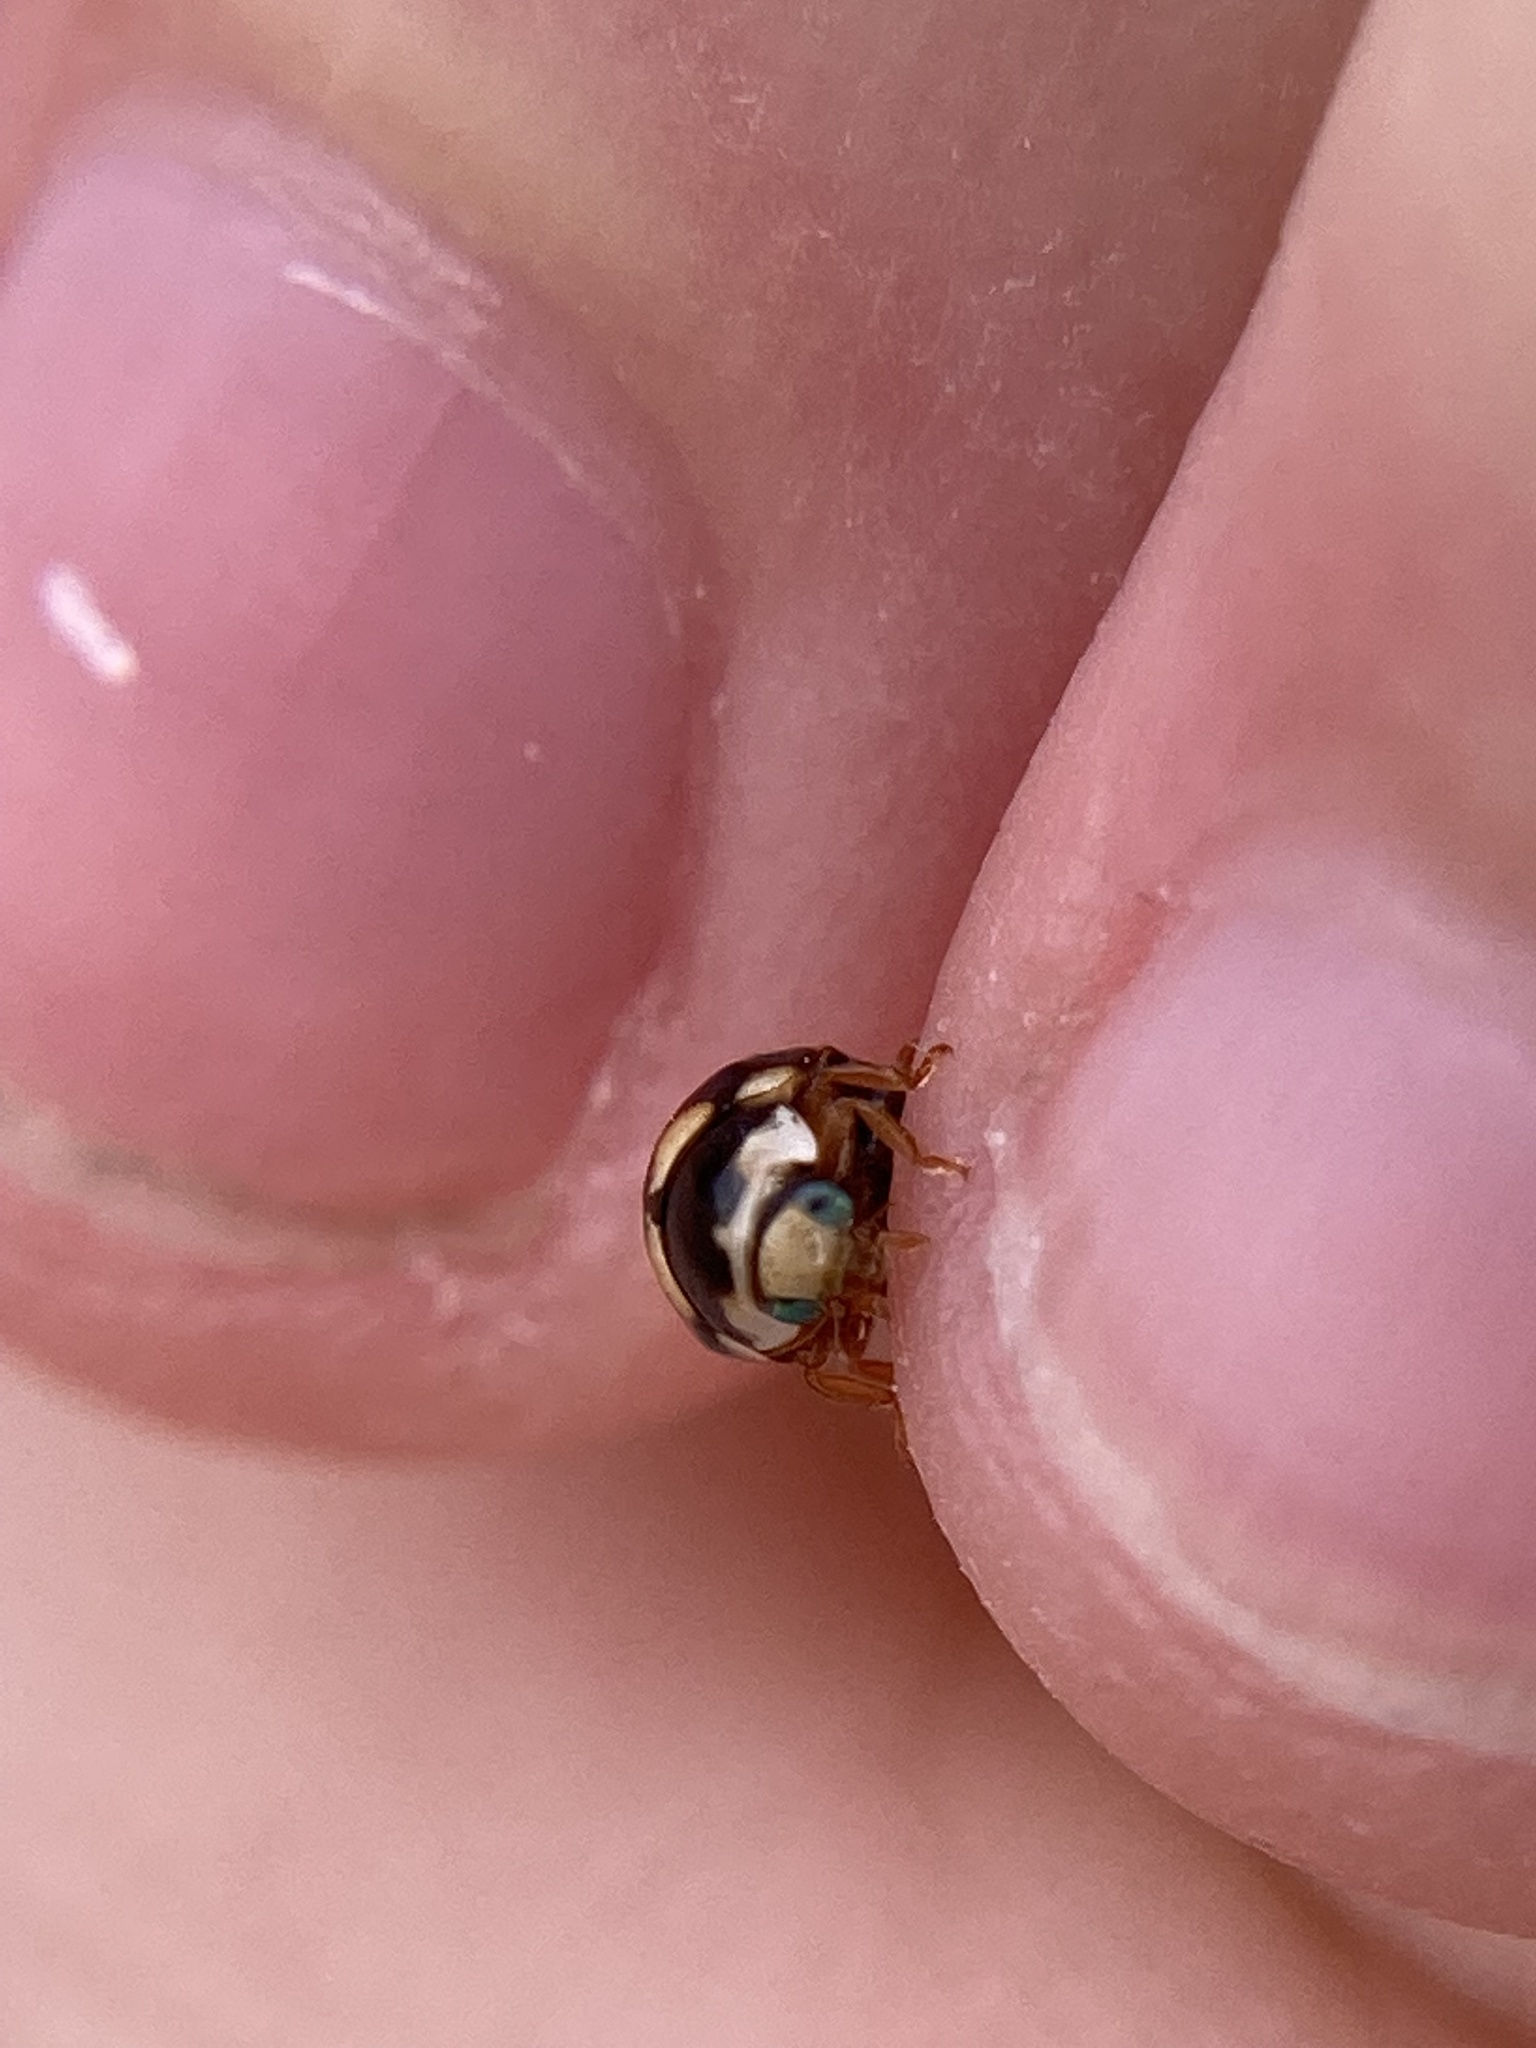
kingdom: Animalia
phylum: Arthropoda
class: Insecta
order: Coleoptera
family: Coccinellidae
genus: Brachiacantha
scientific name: Brachiacantha ursina
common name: Ursine spurleg lady beetle
